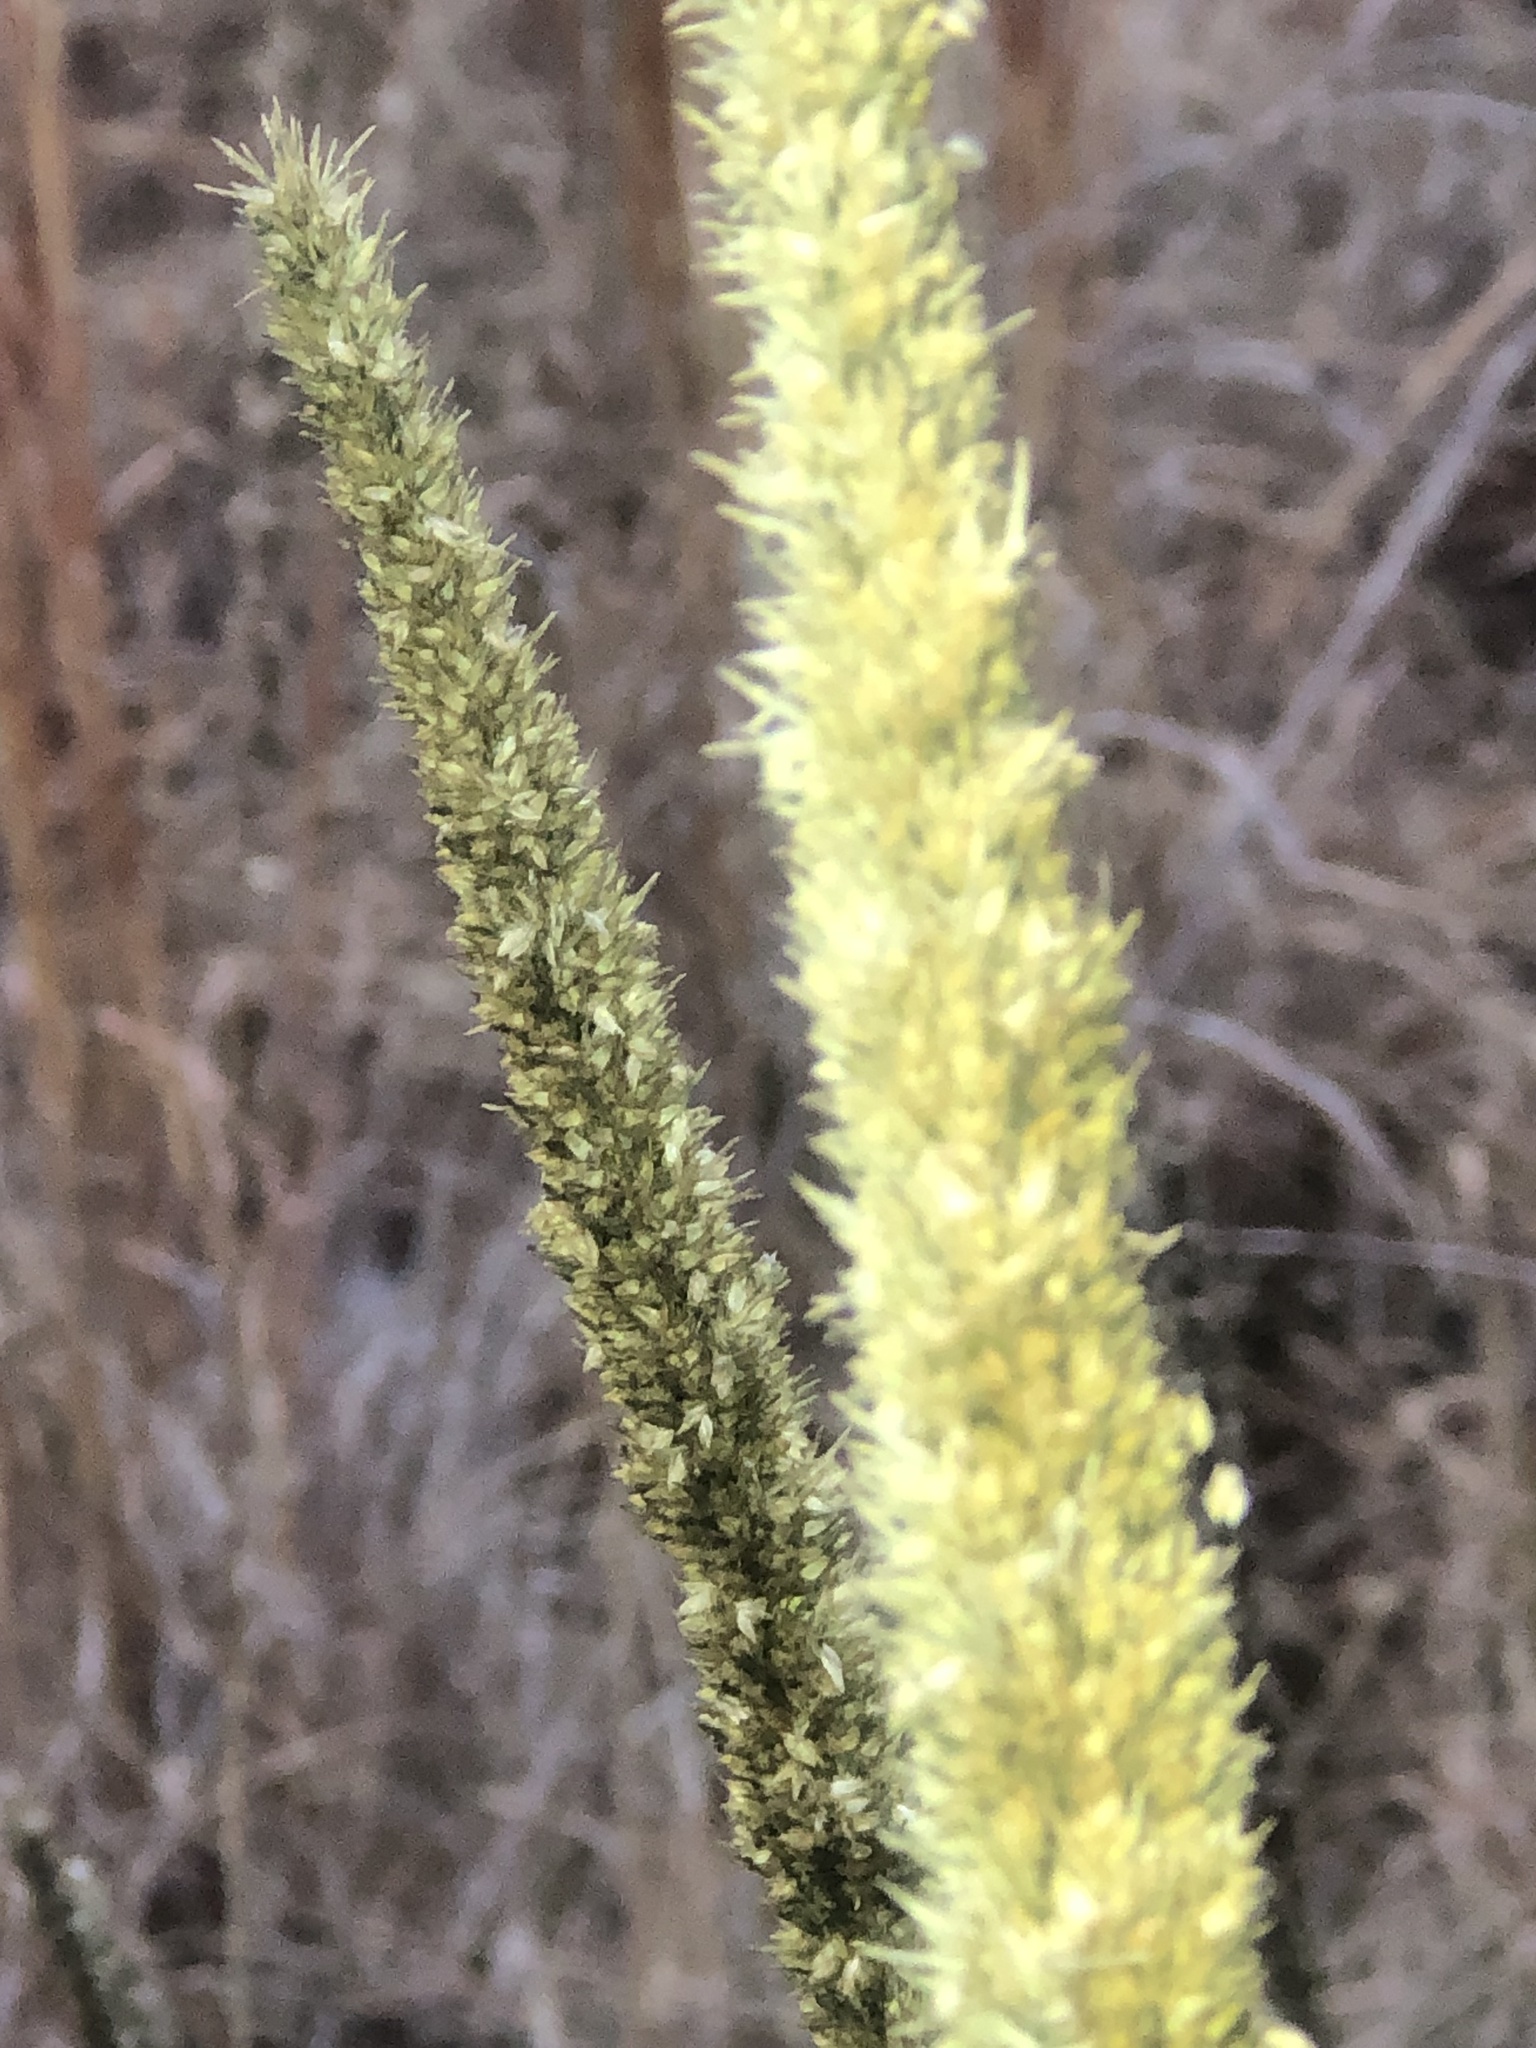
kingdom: Plantae
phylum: Tracheophyta
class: Liliopsida
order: Poales
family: Poaceae
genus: Tridens
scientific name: Tridens strictus
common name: Long-spike tridens
